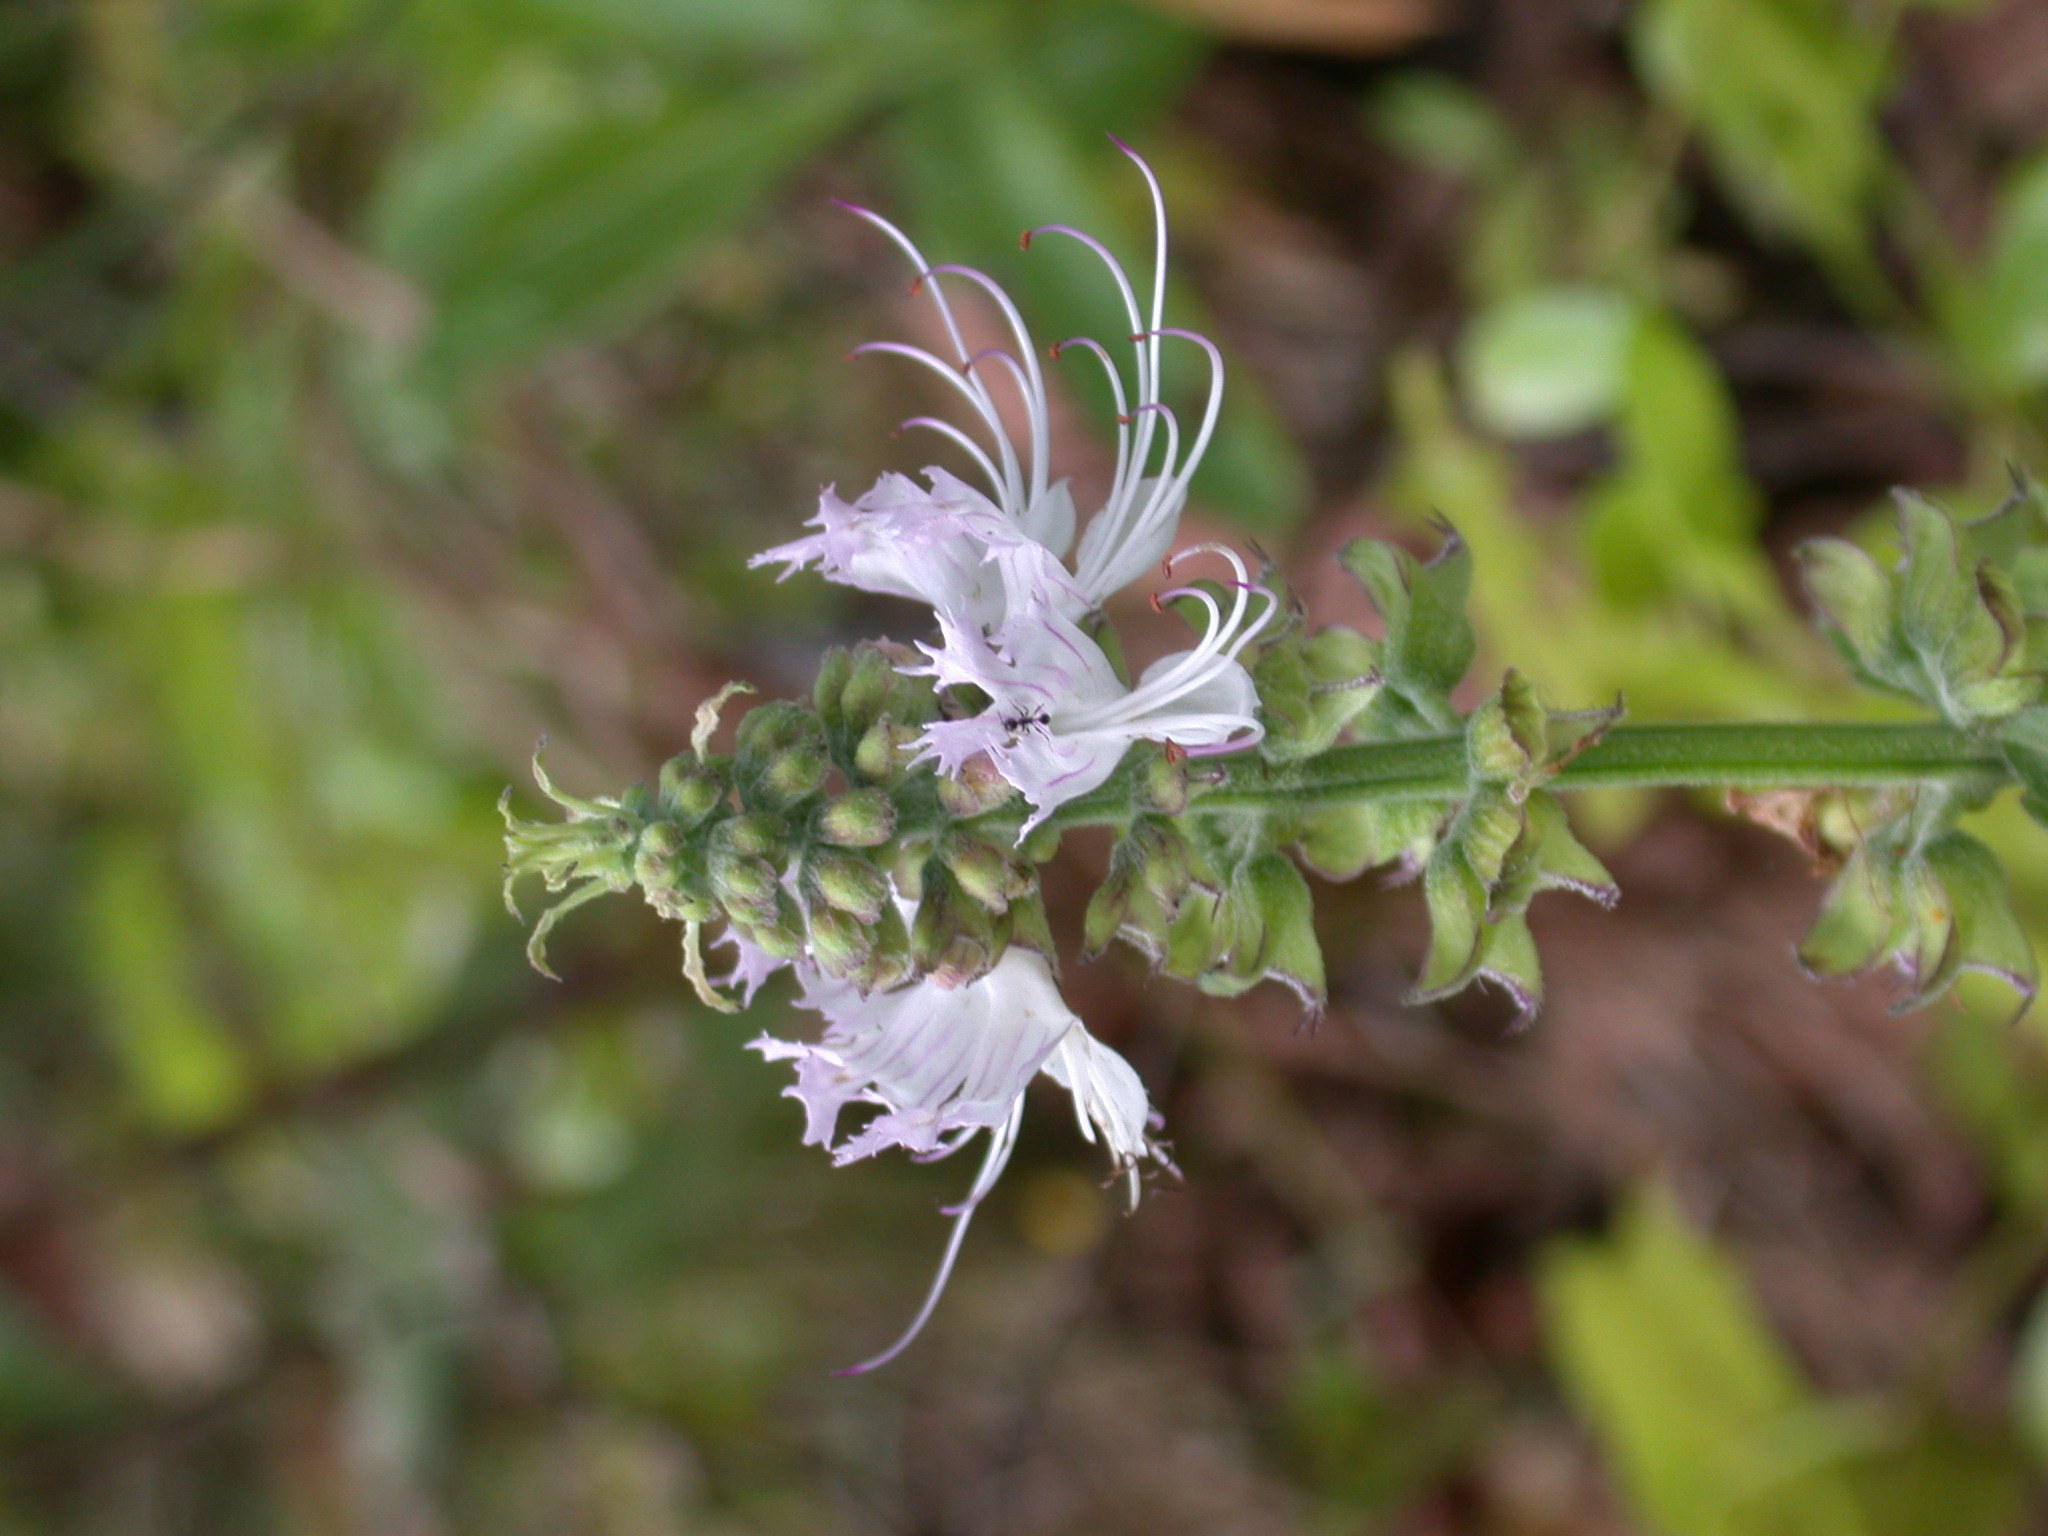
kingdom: Plantae
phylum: Tracheophyta
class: Magnoliopsida
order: Lamiales
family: Lamiaceae
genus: Ocimum
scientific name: Ocimum obovatum
